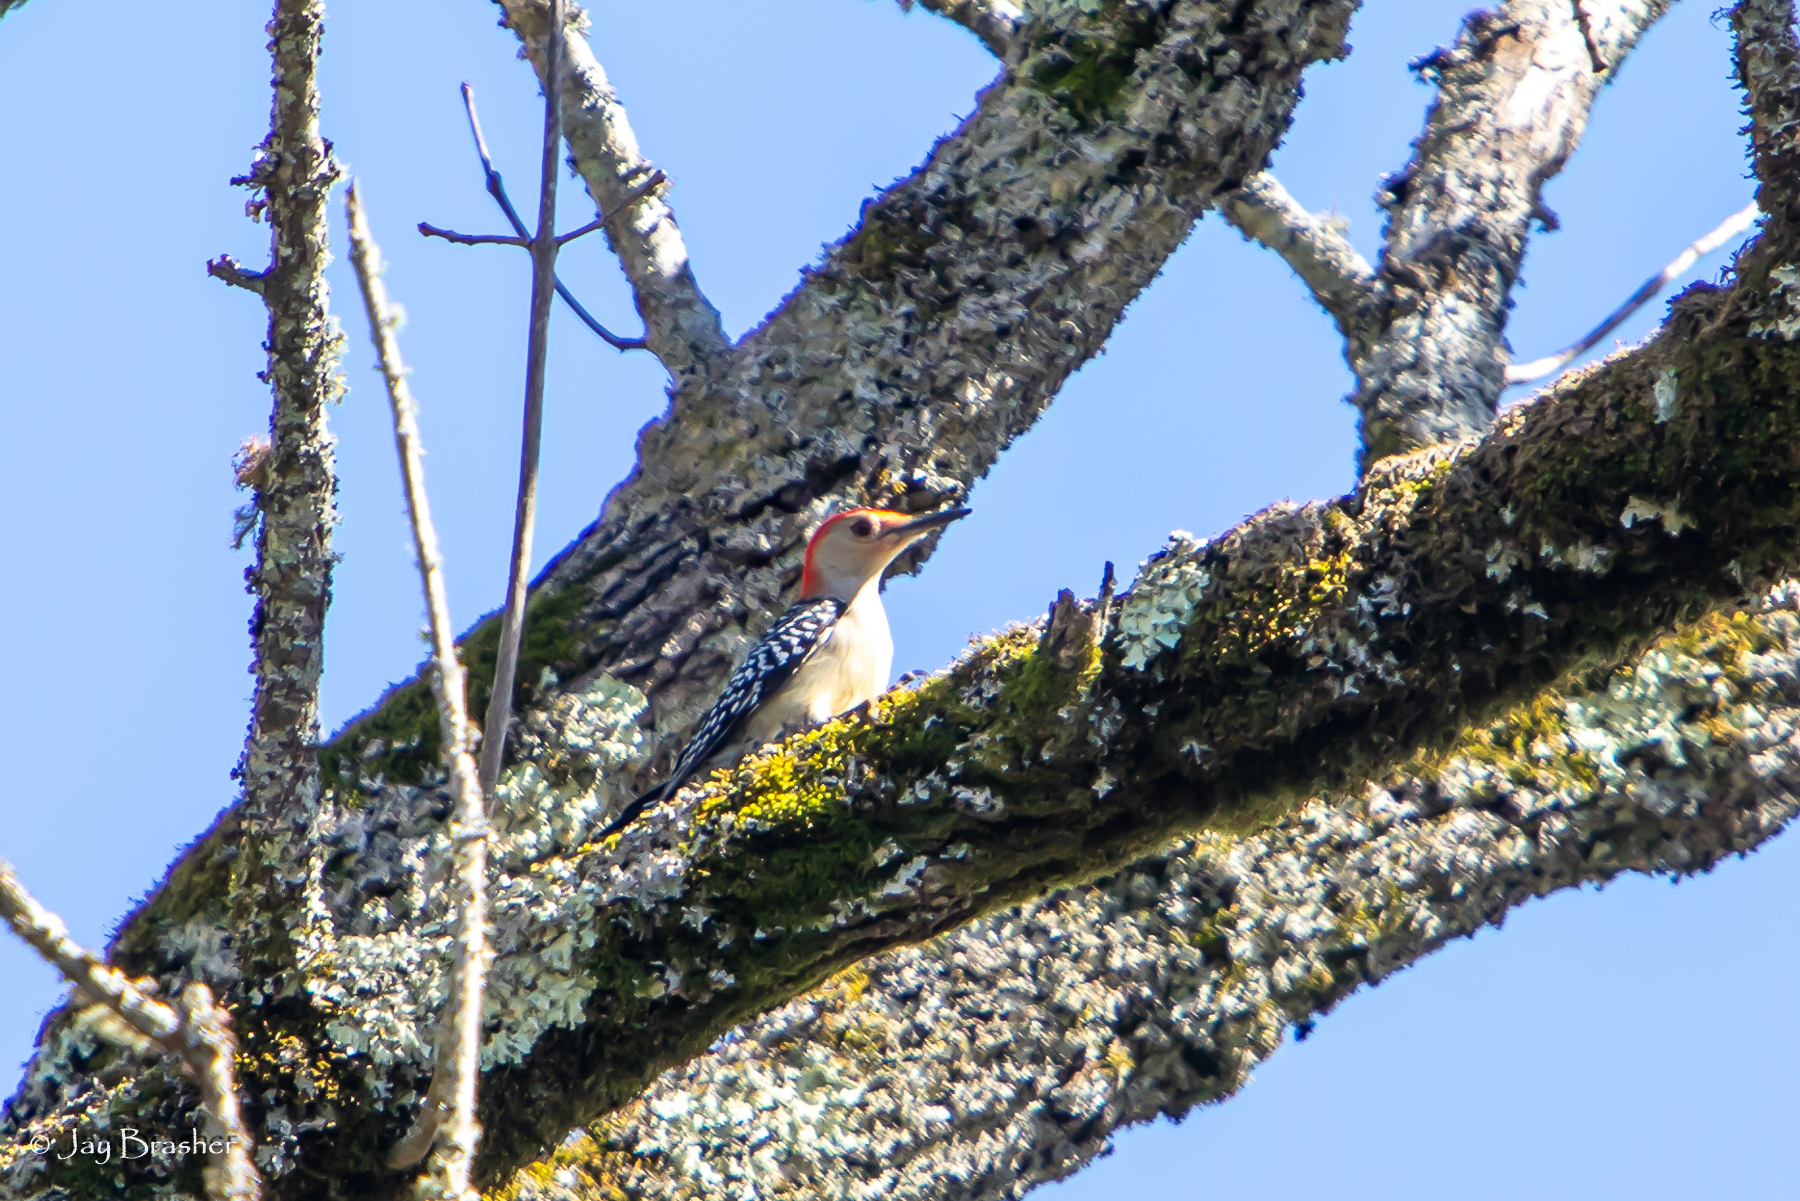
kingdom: Animalia
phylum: Chordata
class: Aves
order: Piciformes
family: Picidae
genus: Melanerpes
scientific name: Melanerpes carolinus
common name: Red-bellied woodpecker
